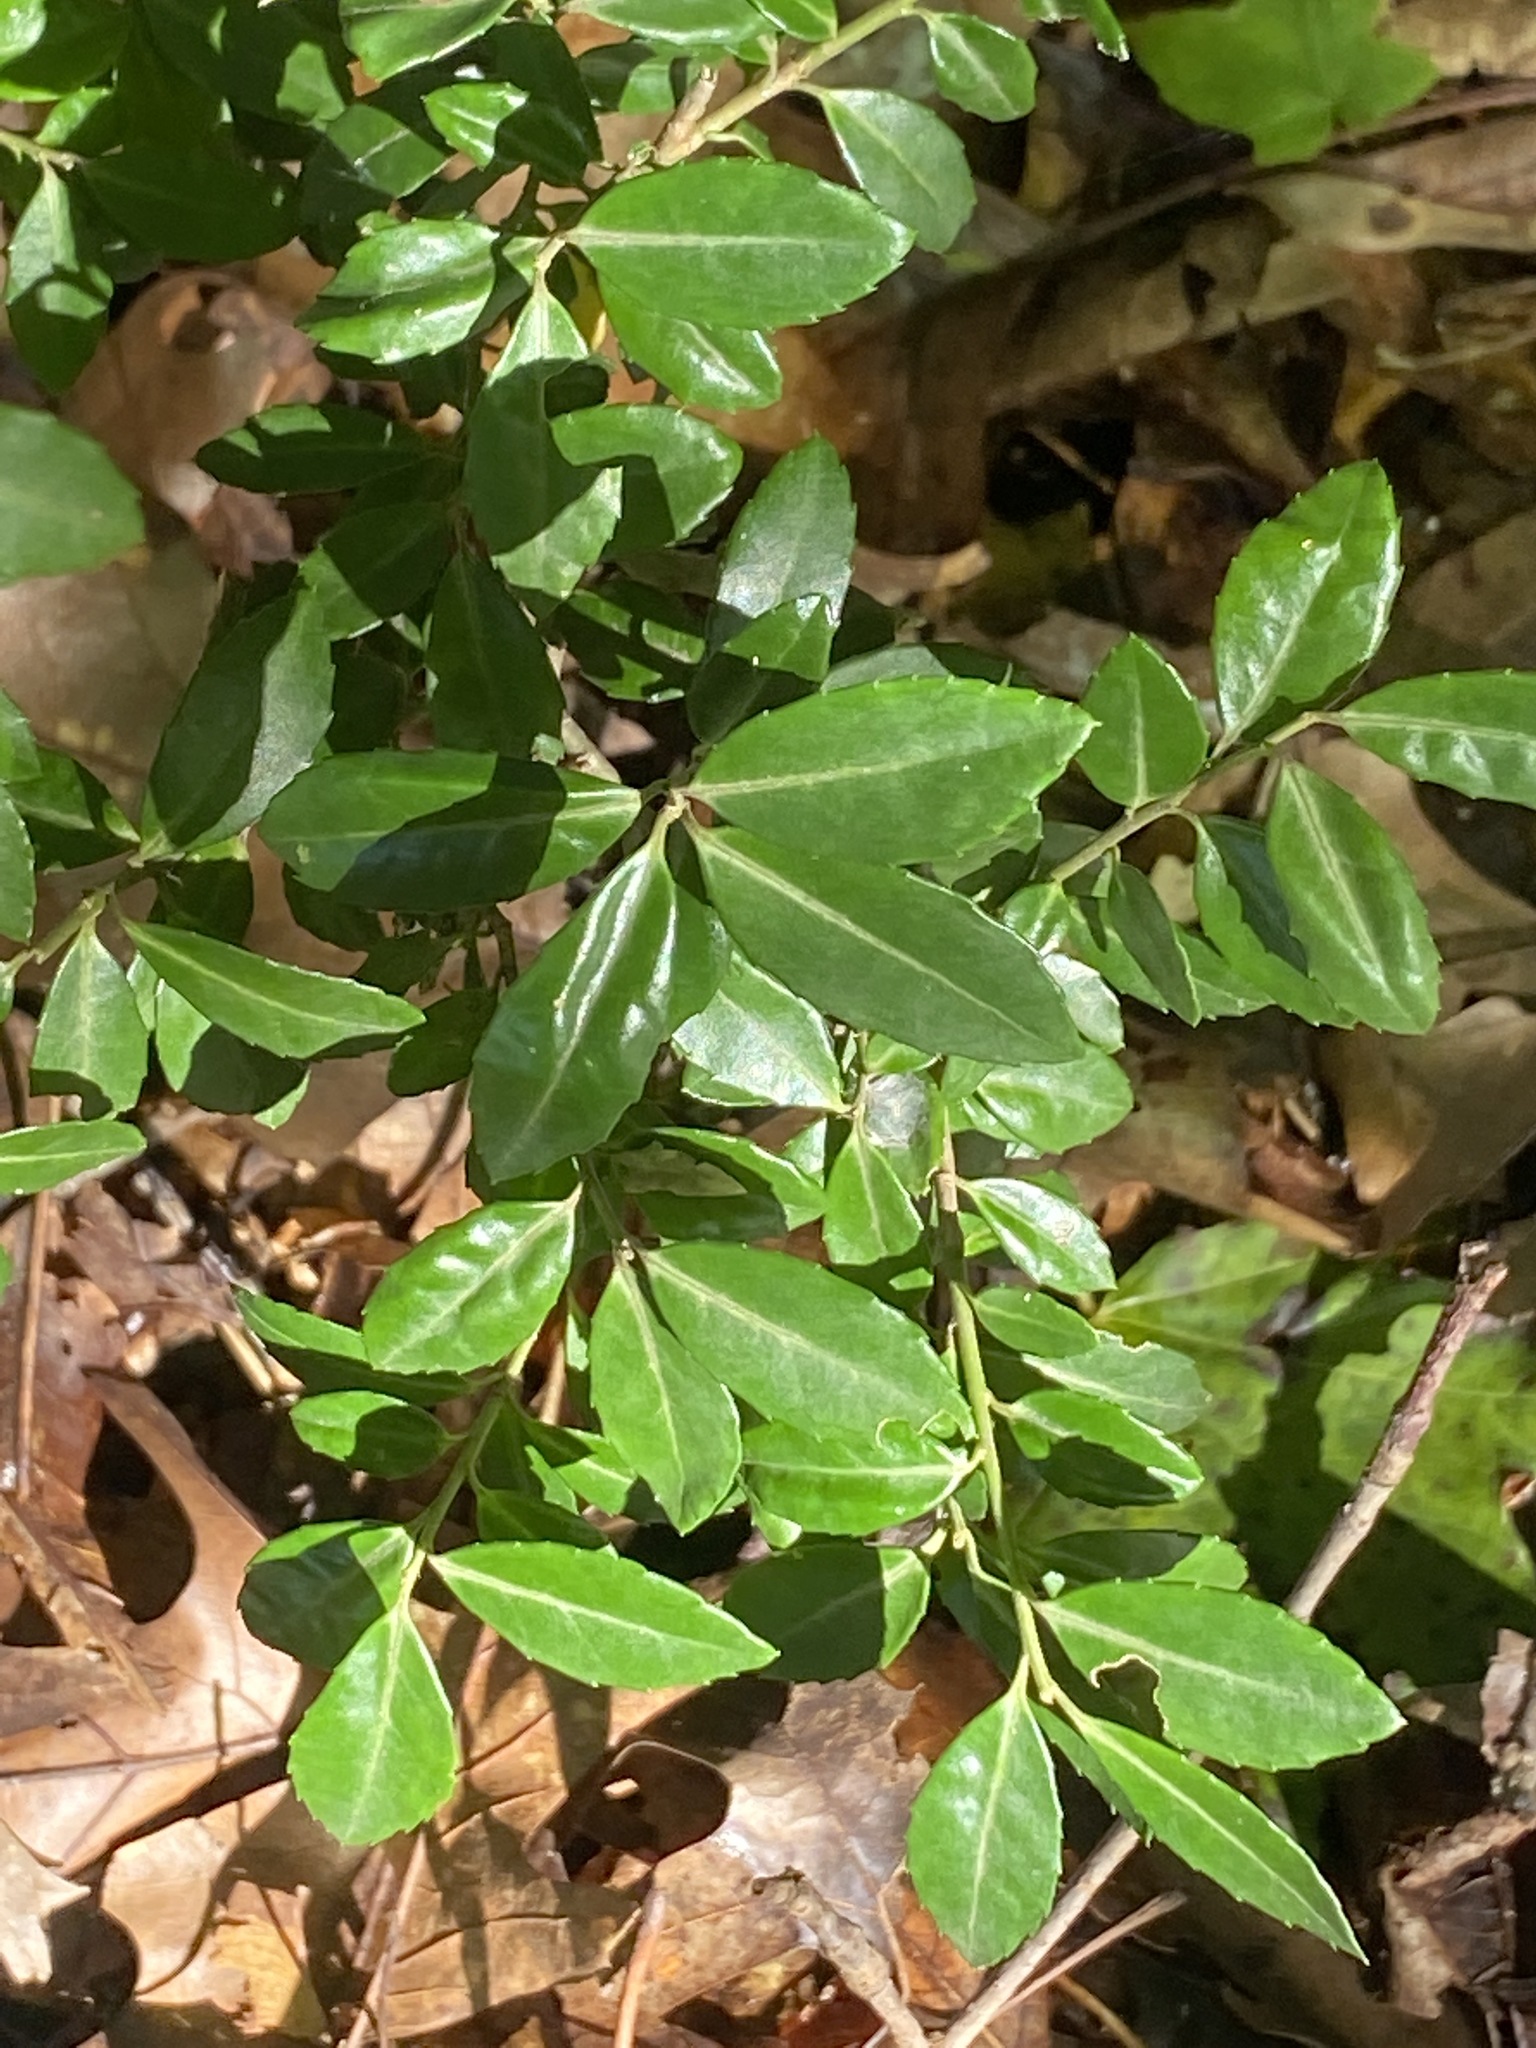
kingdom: Plantae
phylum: Tracheophyta
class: Magnoliopsida
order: Aquifoliales
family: Aquifoliaceae
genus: Ilex
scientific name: Ilex crenata
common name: Japanese holly
